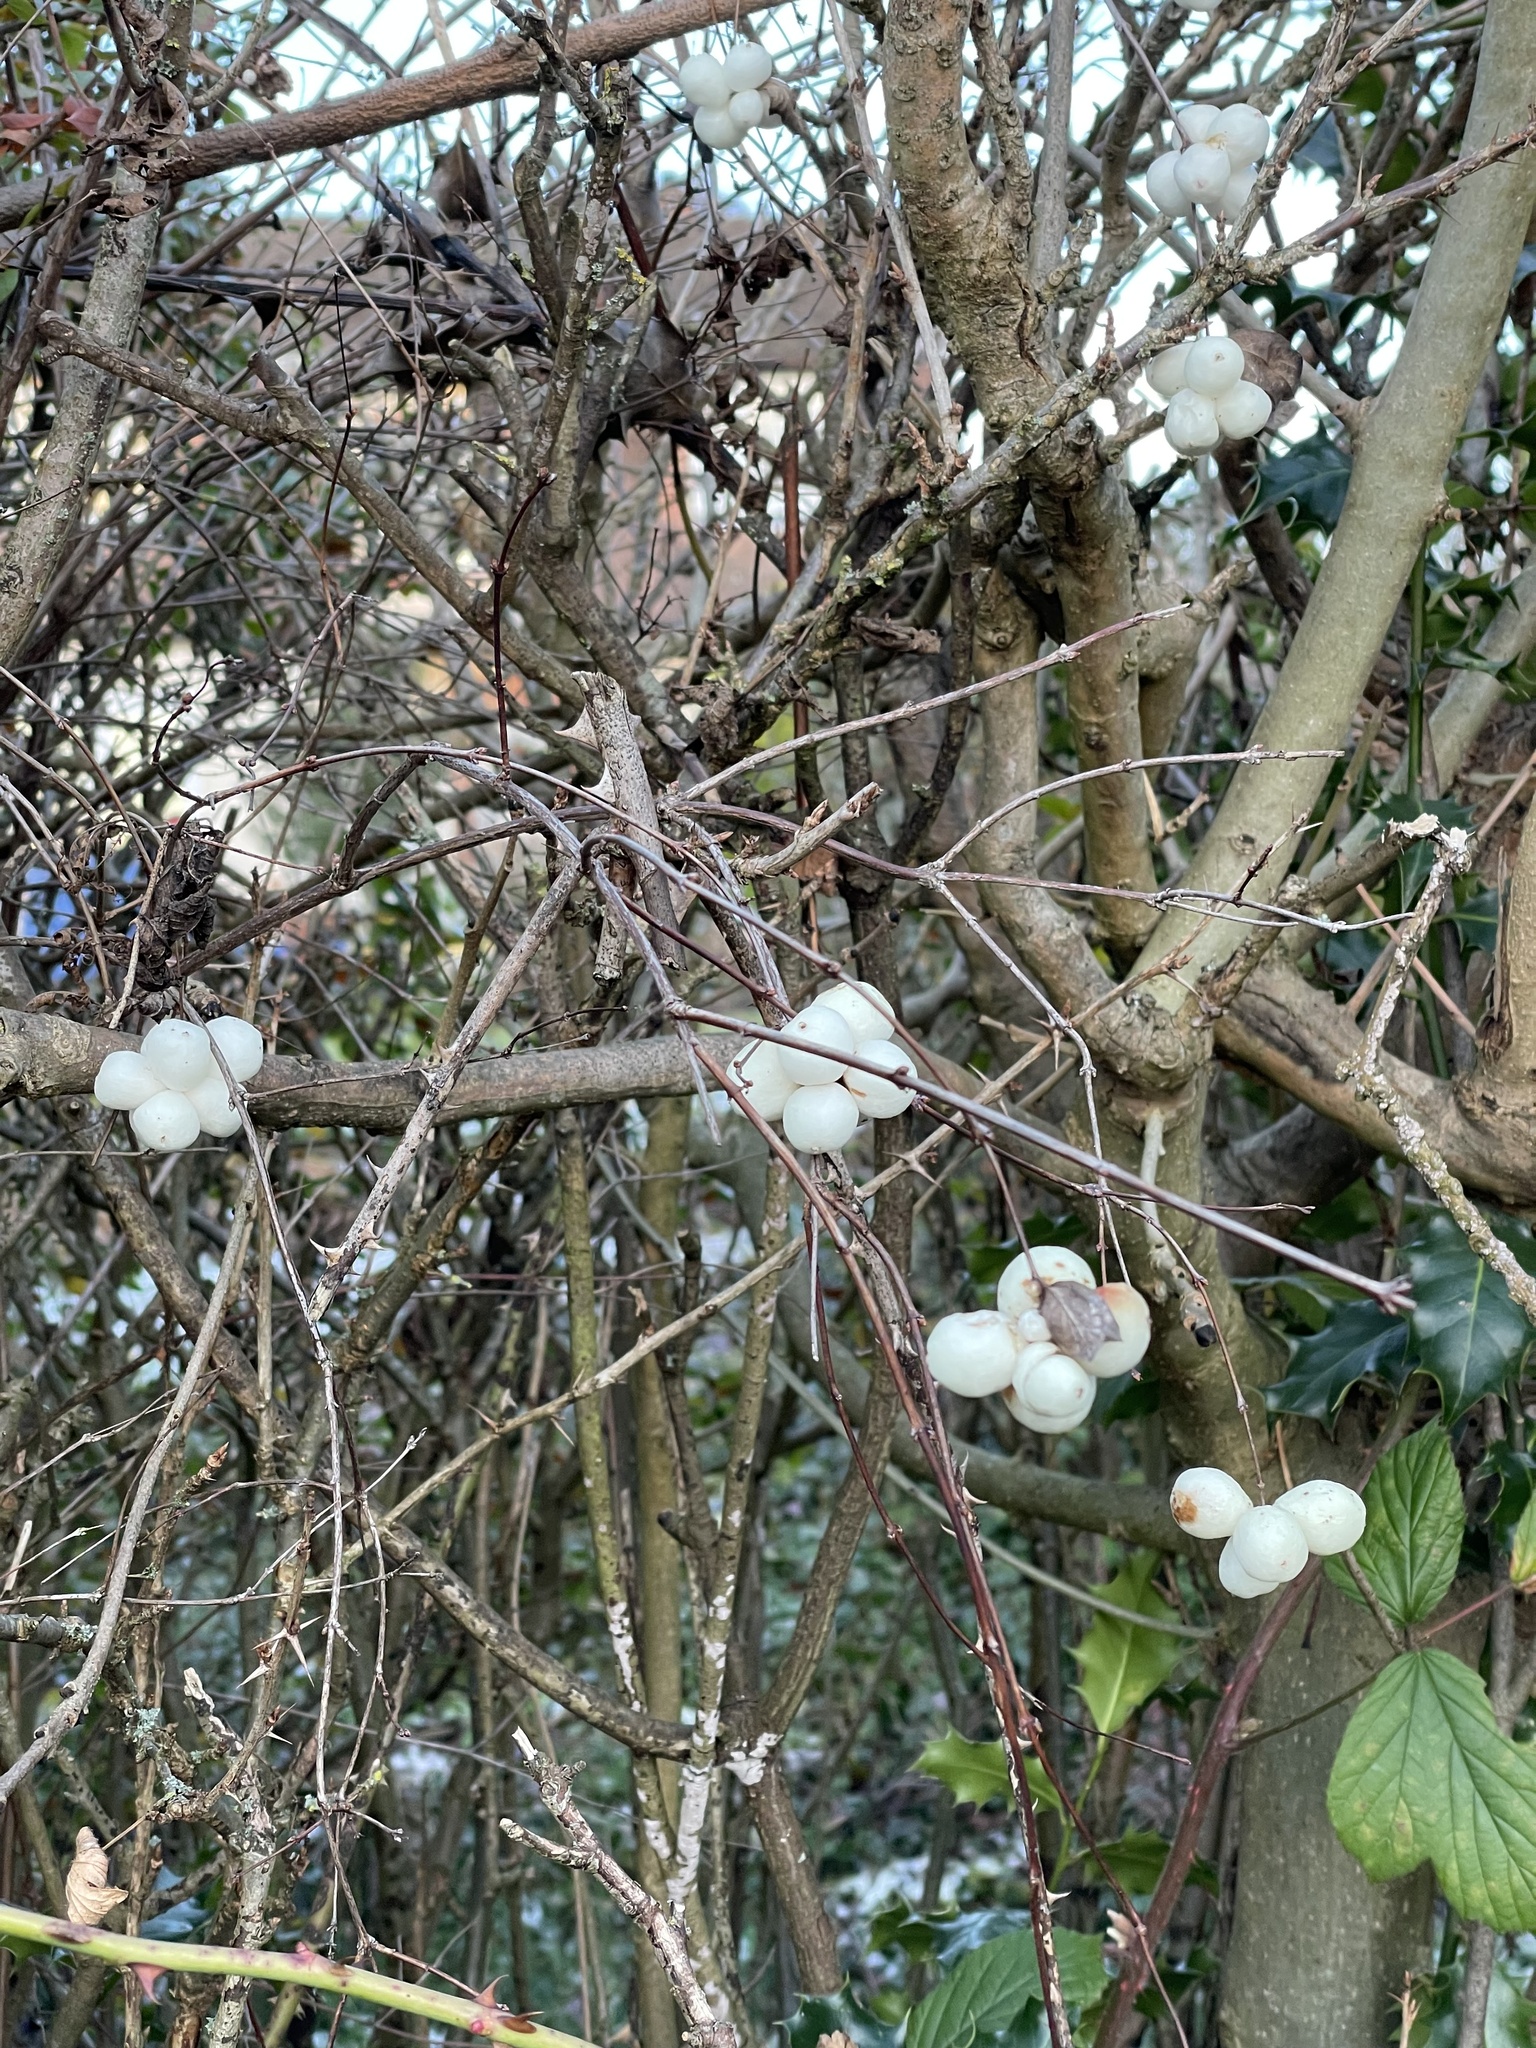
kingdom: Plantae
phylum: Tracheophyta
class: Magnoliopsida
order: Dipsacales
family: Caprifoliaceae
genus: Symphoricarpos
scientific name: Symphoricarpos albus
